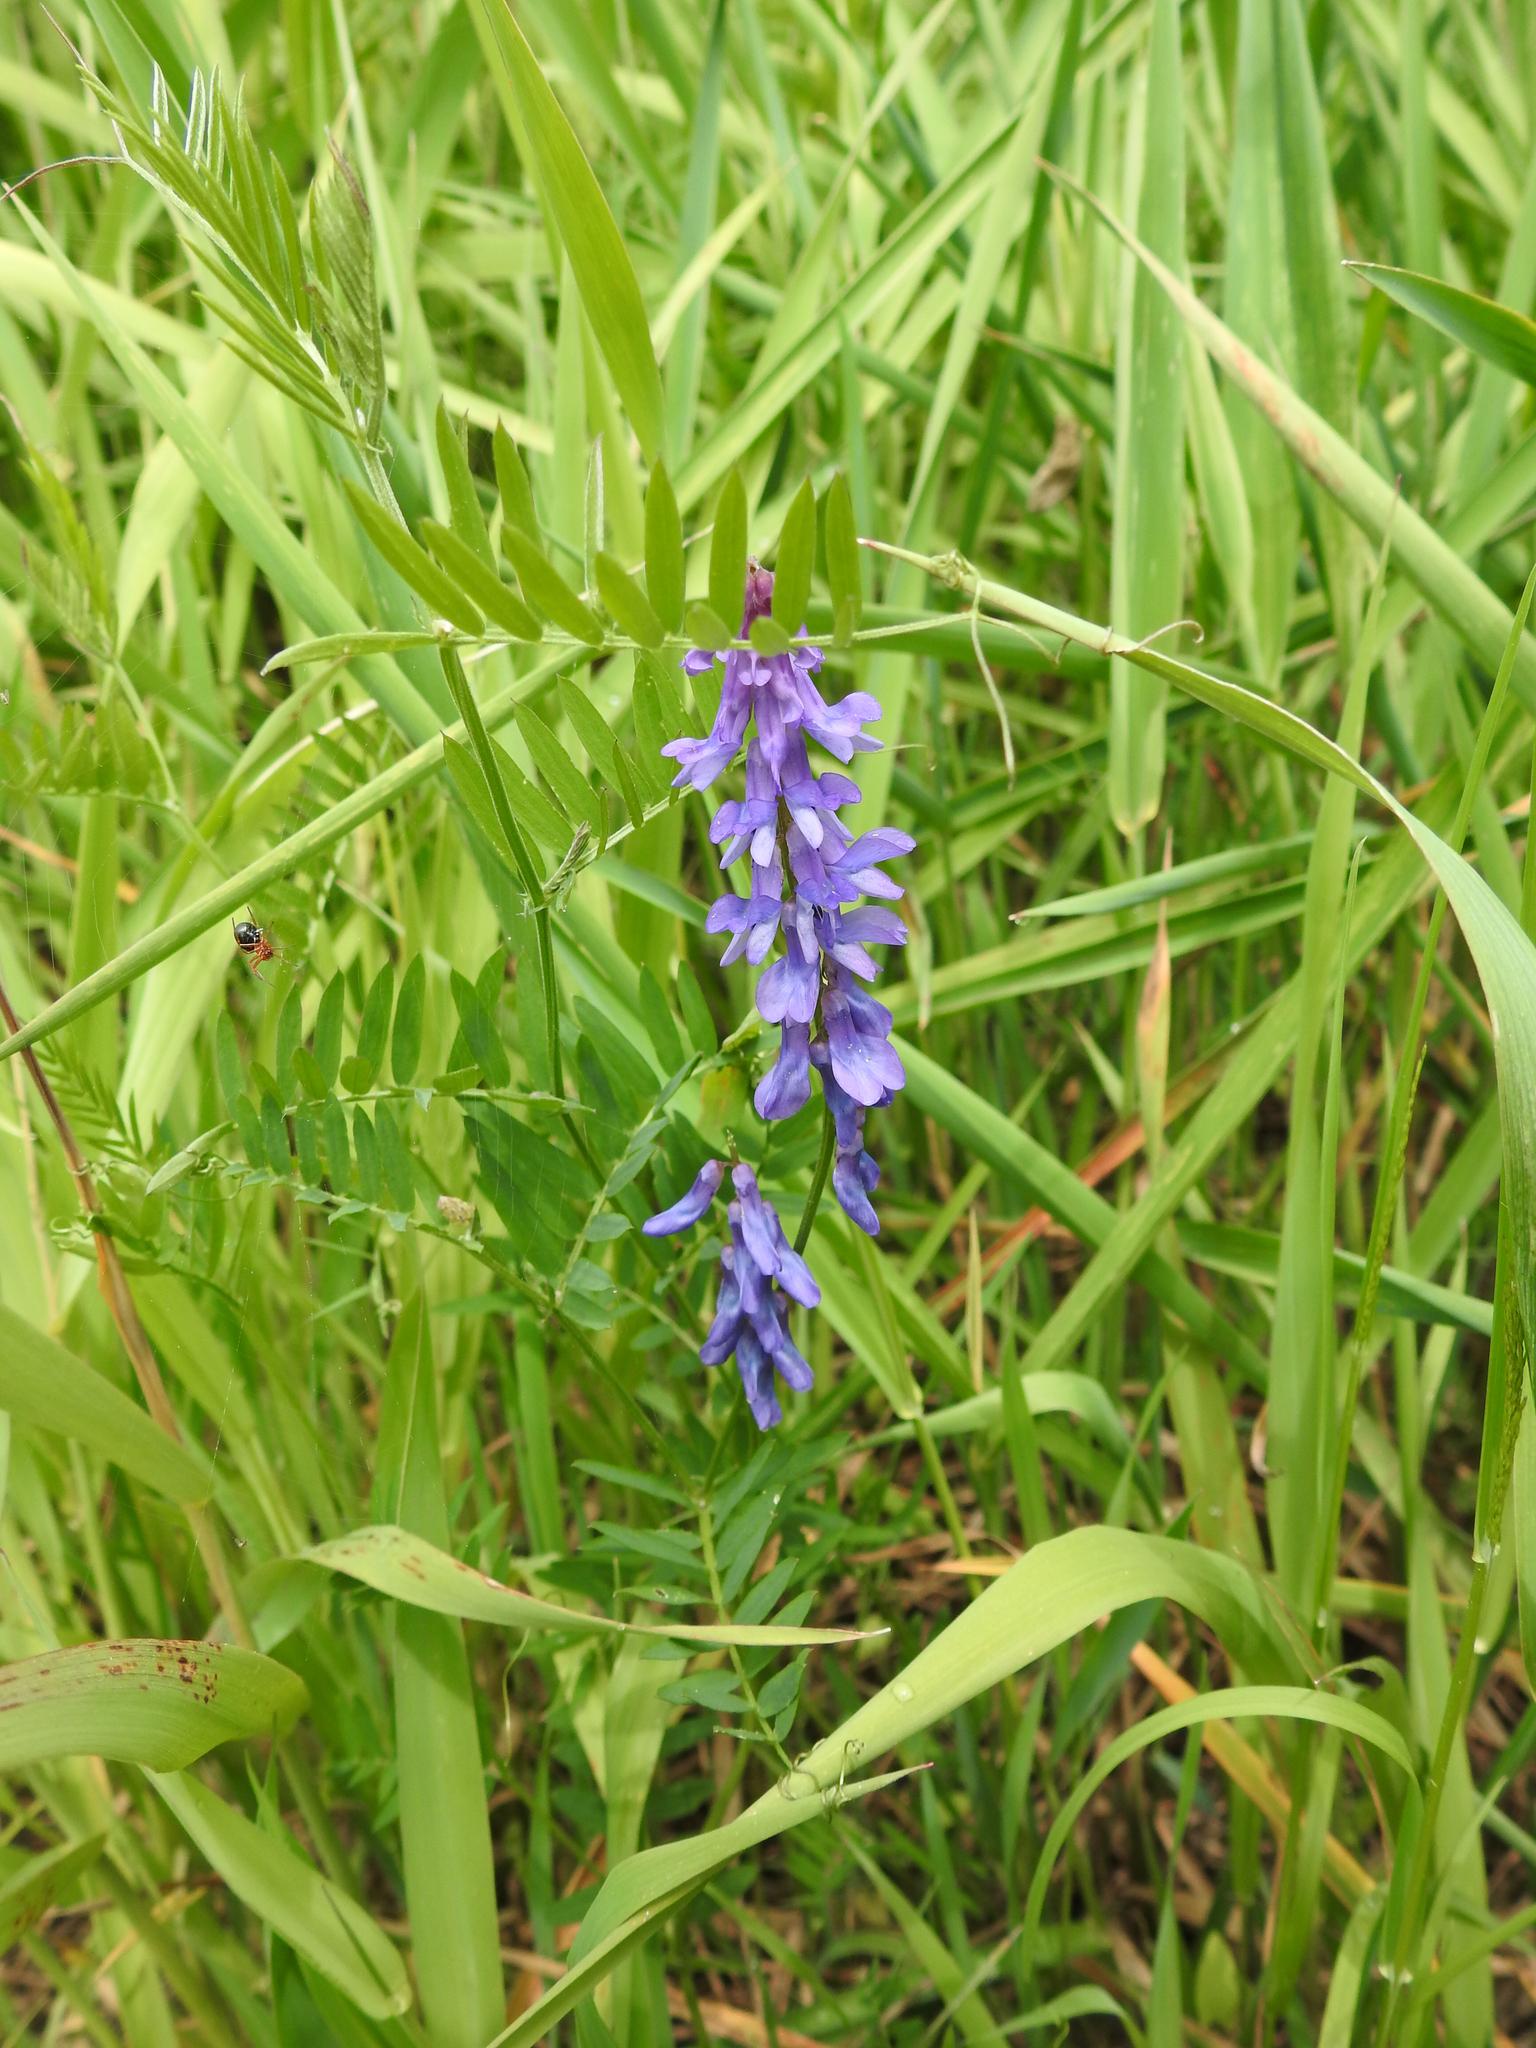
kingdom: Plantae
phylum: Tracheophyta
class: Magnoliopsida
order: Fabales
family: Fabaceae
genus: Vicia
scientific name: Vicia cracca
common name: Bird vetch
